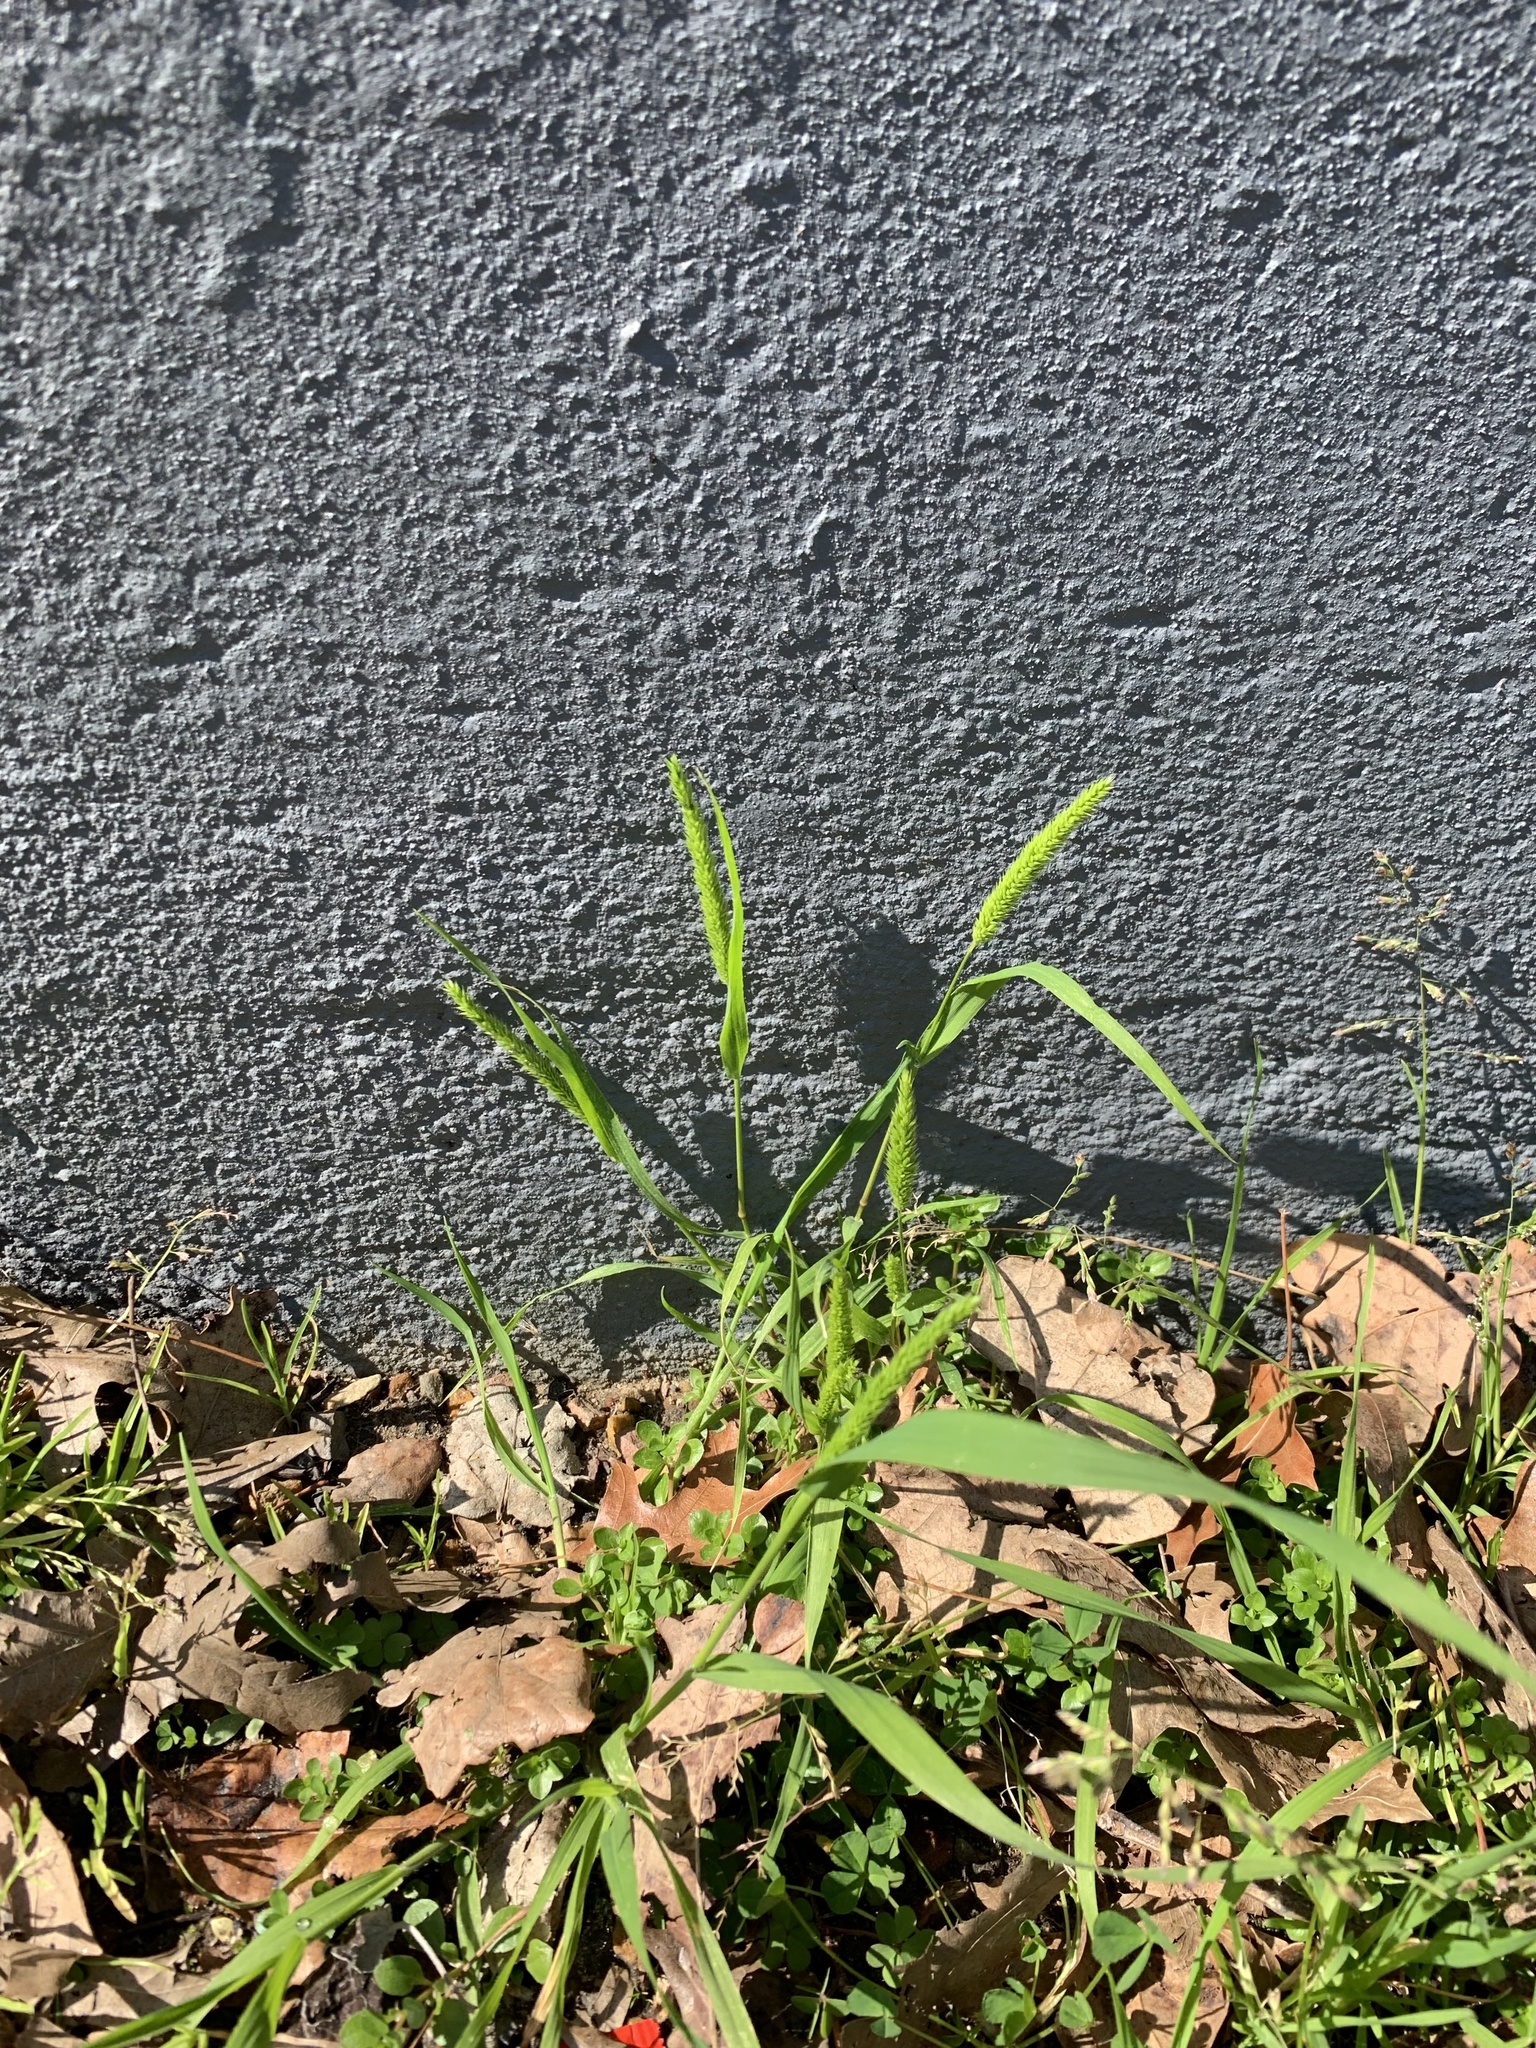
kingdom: Plantae
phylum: Tracheophyta
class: Liliopsida
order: Poales
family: Poaceae
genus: Rostraria
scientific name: Rostraria cristata
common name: Mediterranean hair-grass
